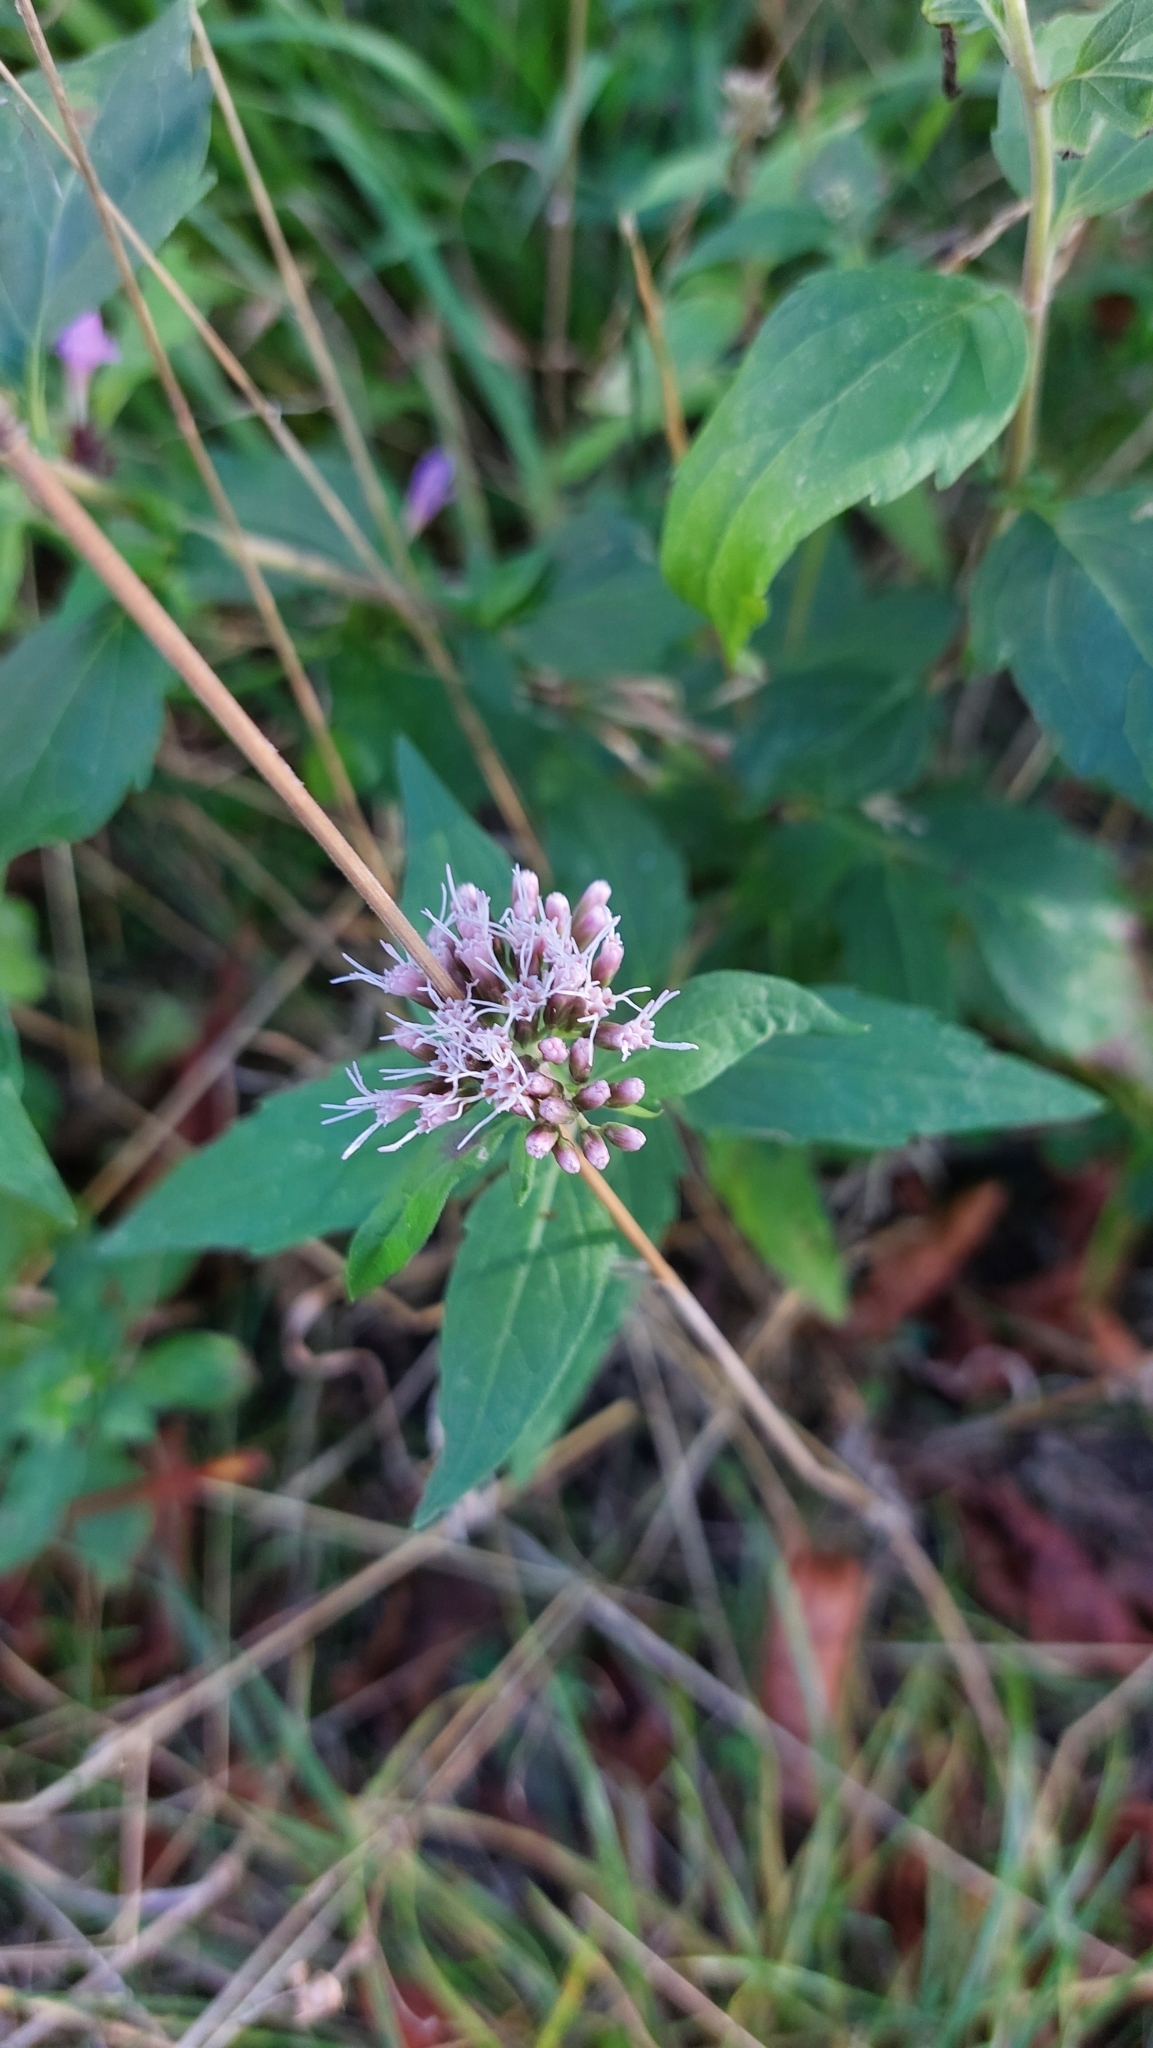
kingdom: Plantae
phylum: Tracheophyta
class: Magnoliopsida
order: Asterales
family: Asteraceae
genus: Eupatorium
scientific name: Eupatorium cannabinum
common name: Hemp-agrimony
